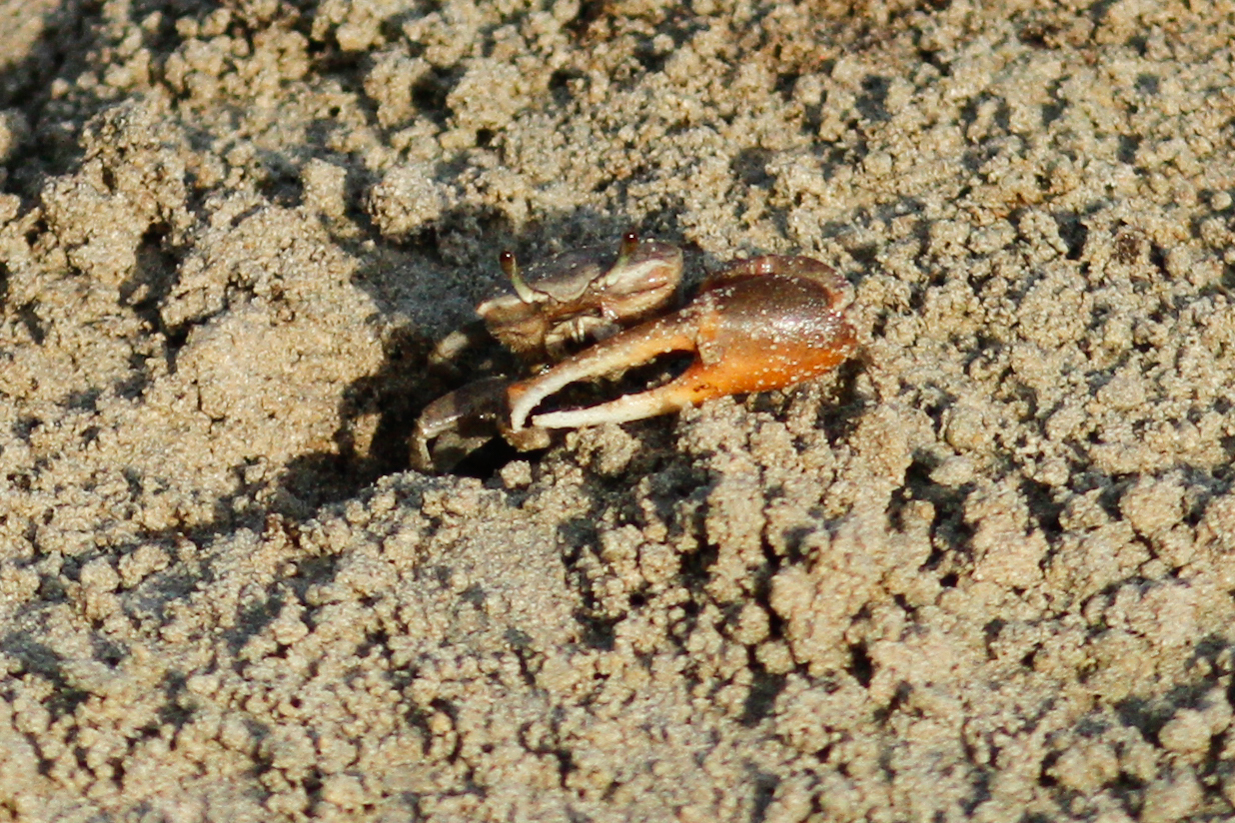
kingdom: Animalia
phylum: Arthropoda
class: Malacostraca
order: Decapoda
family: Ocypodidae
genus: Leptuca
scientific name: Leptuca helleri
